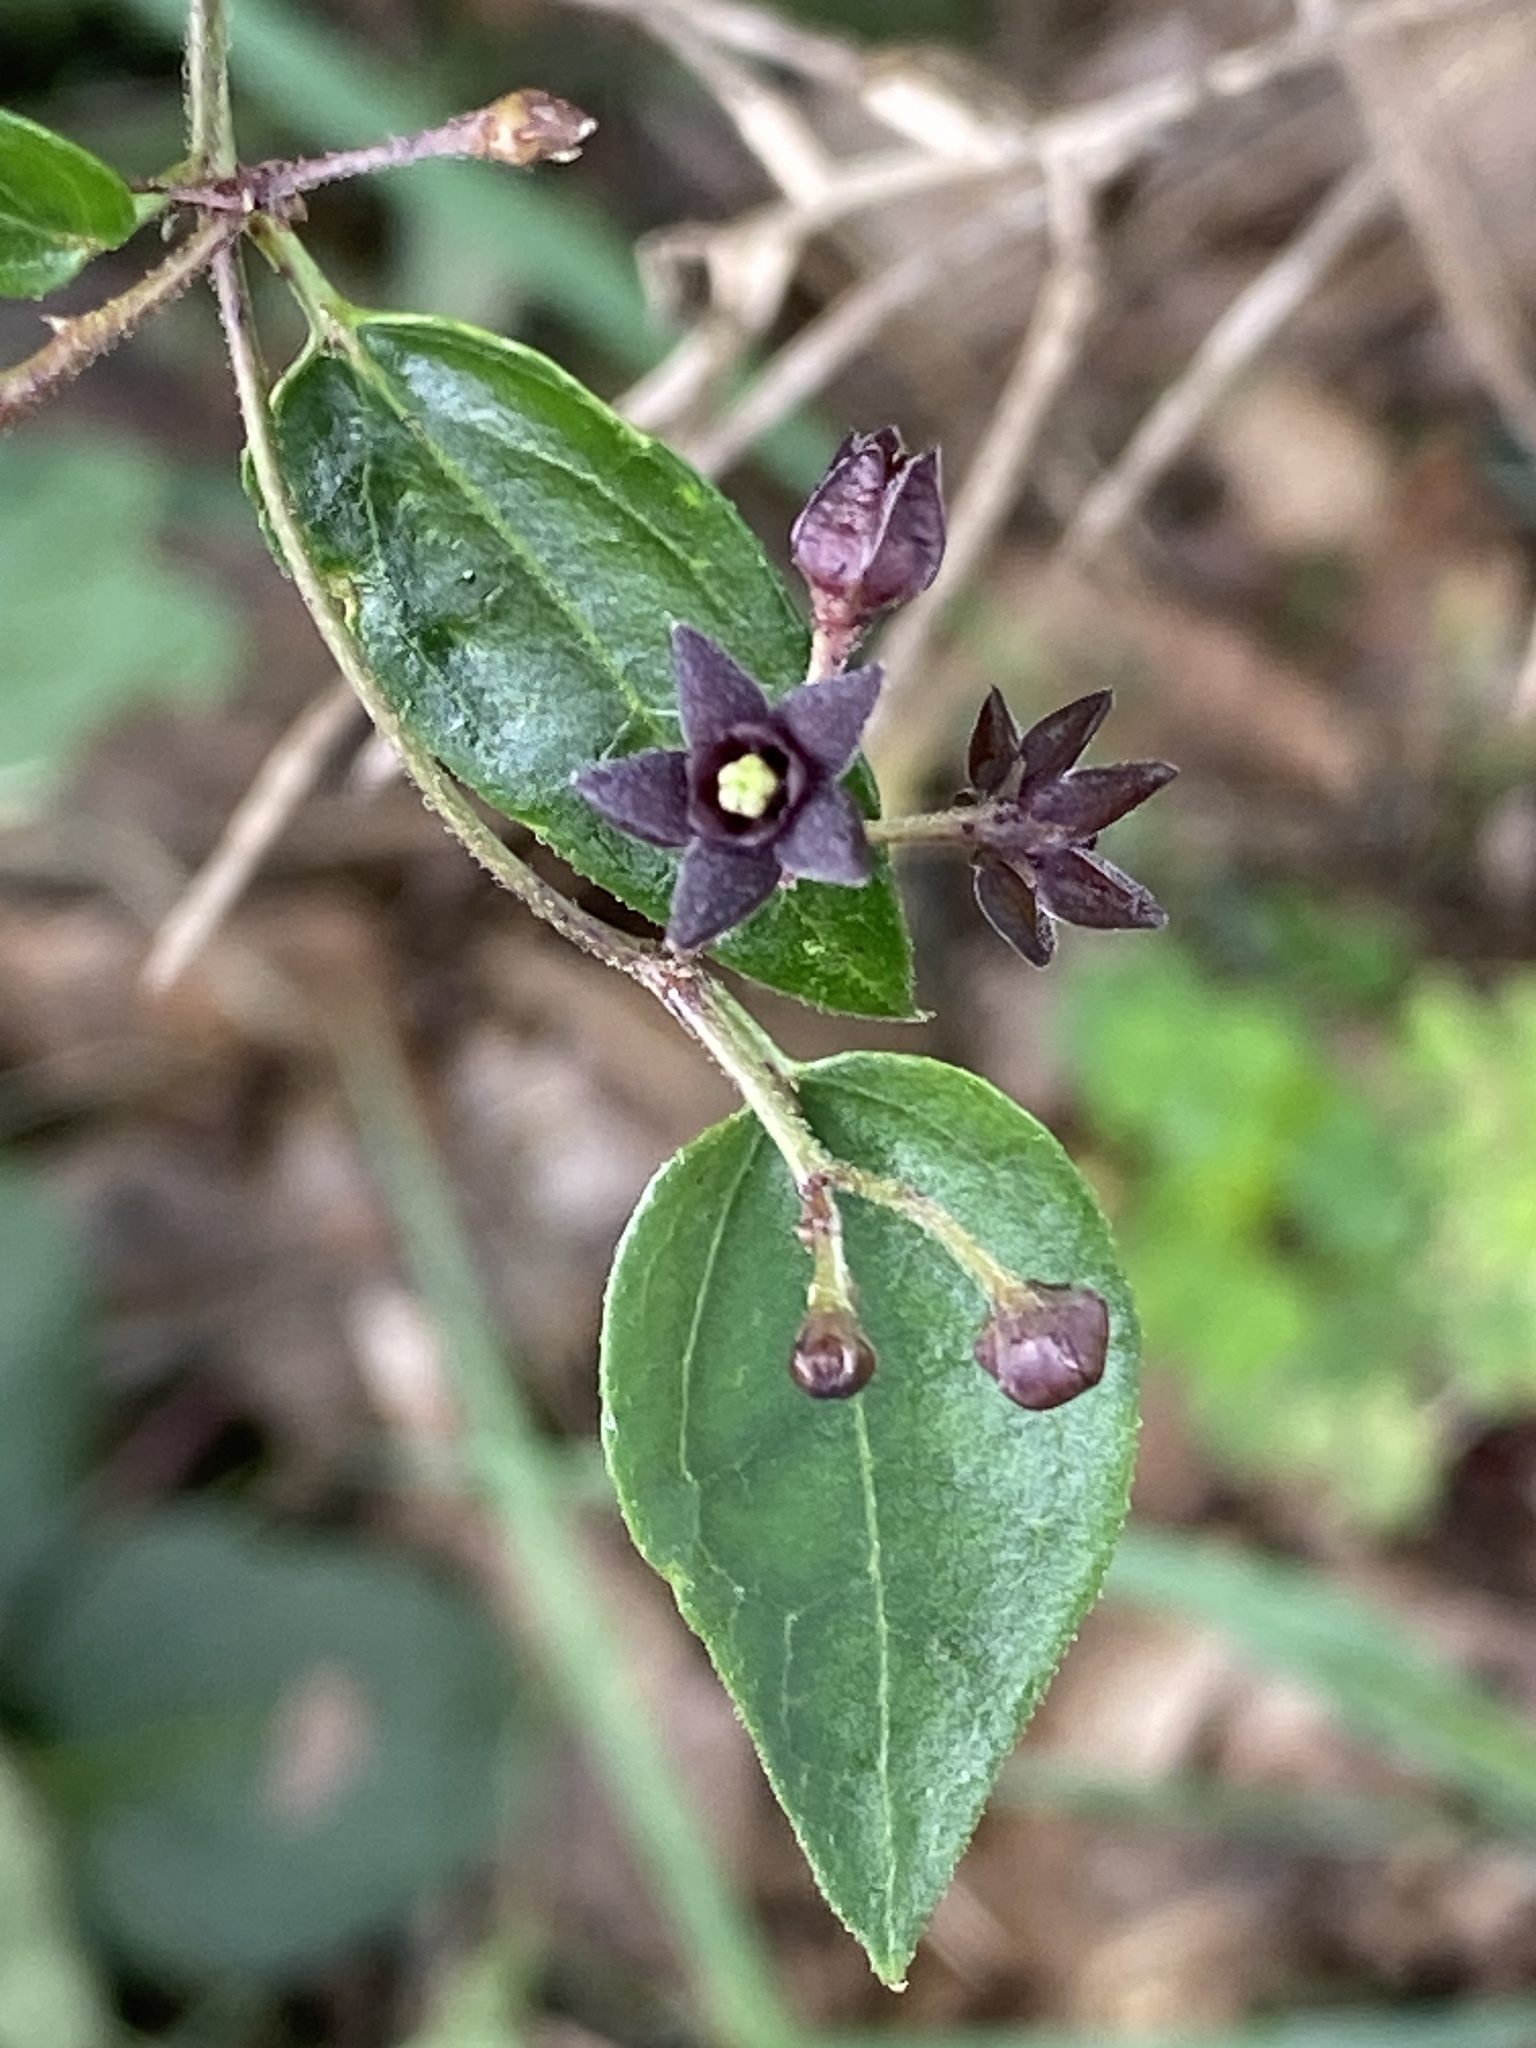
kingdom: Plantae
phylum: Tracheophyta
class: Magnoliopsida
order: Gentianales
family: Apocynaceae
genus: Vincetoxicum
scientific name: Vincetoxicum nigrum
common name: Black swallow-wort
